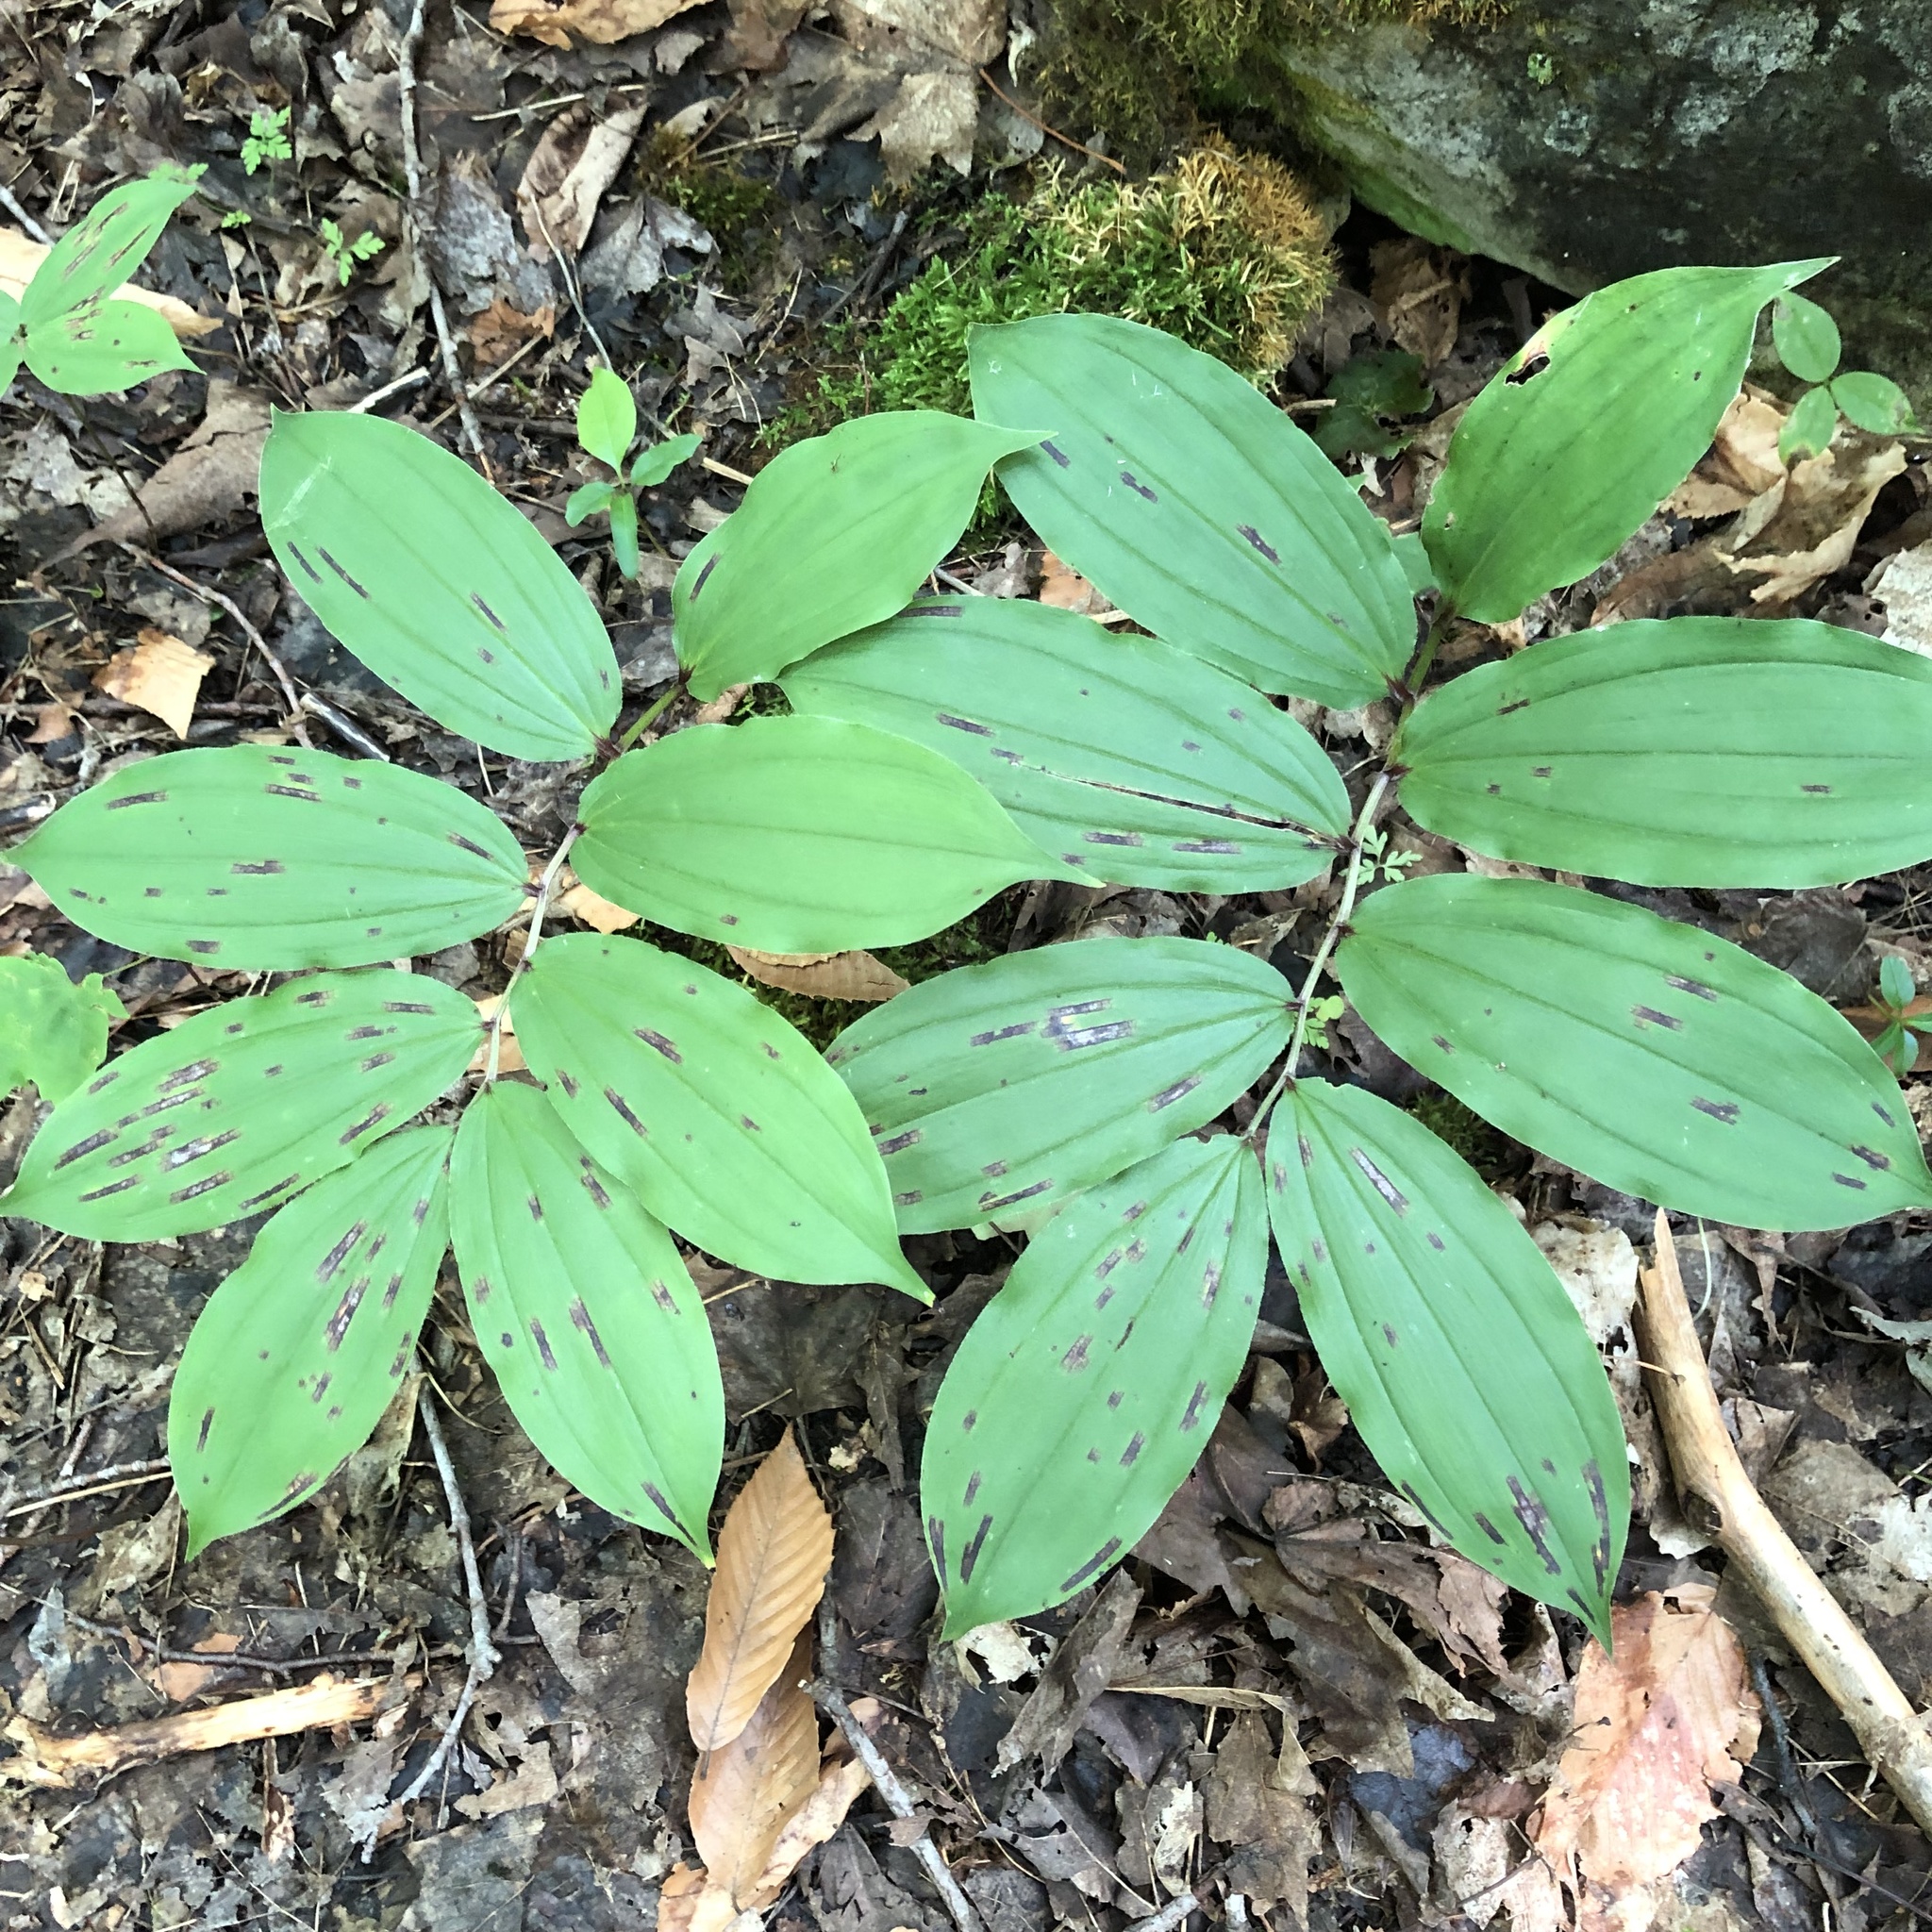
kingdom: Plantae
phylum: Tracheophyta
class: Liliopsida
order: Asparagales
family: Asparagaceae
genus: Maianthemum
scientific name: Maianthemum racemosum
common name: False spikenard
